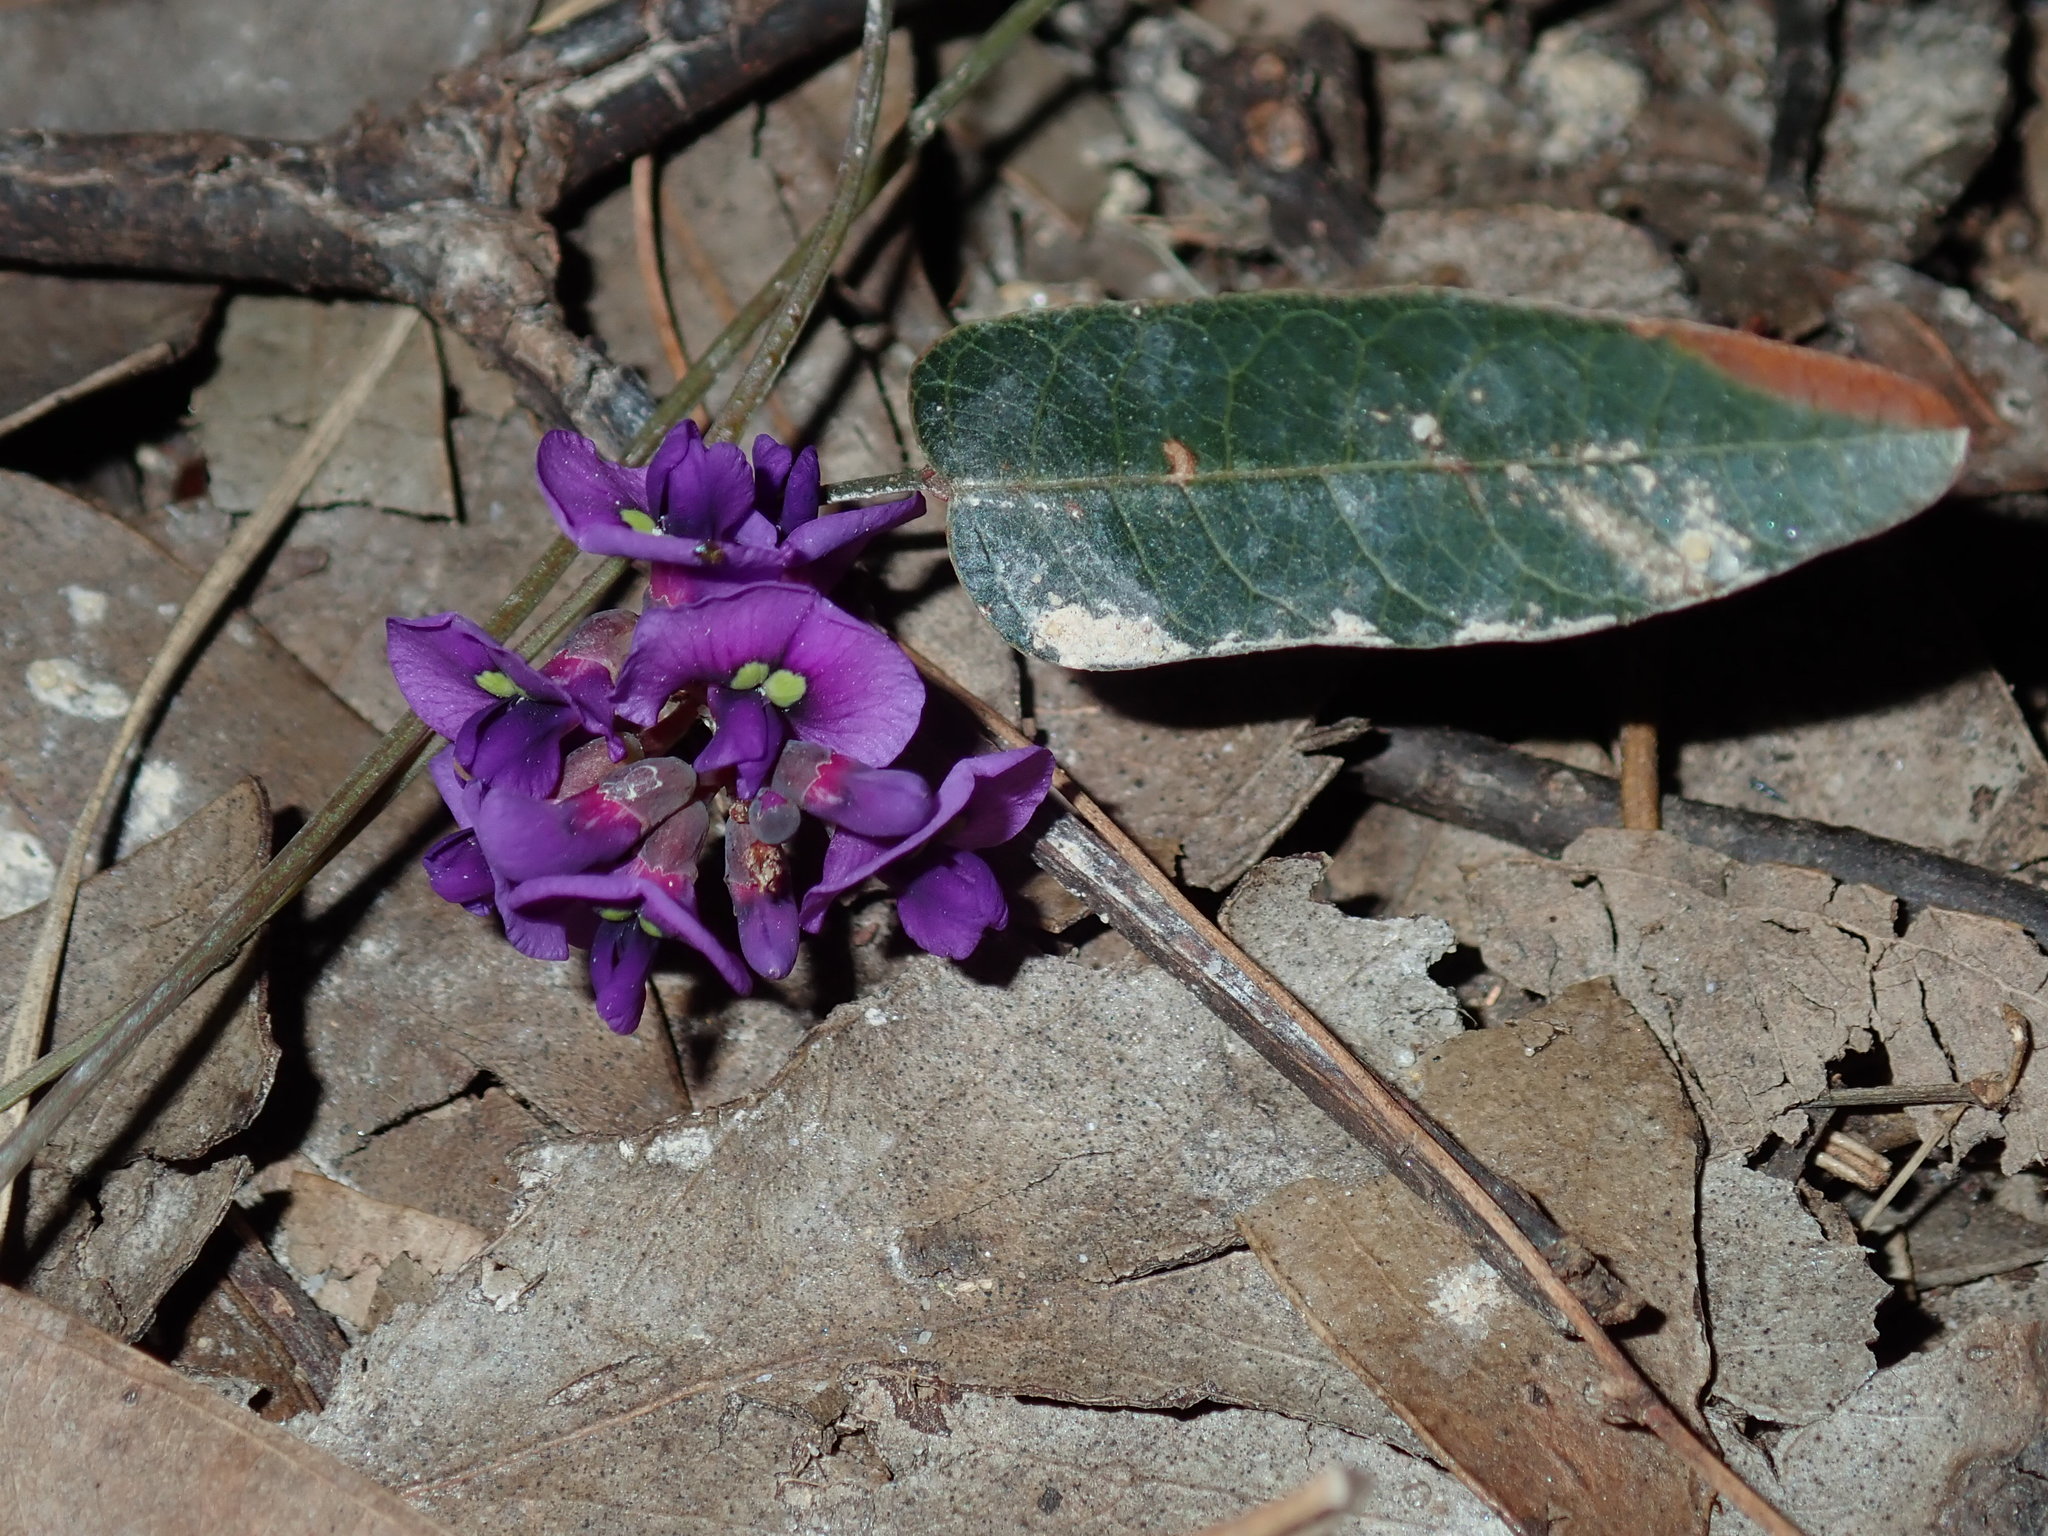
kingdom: Plantae
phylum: Tracheophyta
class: Magnoliopsida
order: Fabales
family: Fabaceae
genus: Hardenbergia
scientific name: Hardenbergia violacea
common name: Coral-pea
